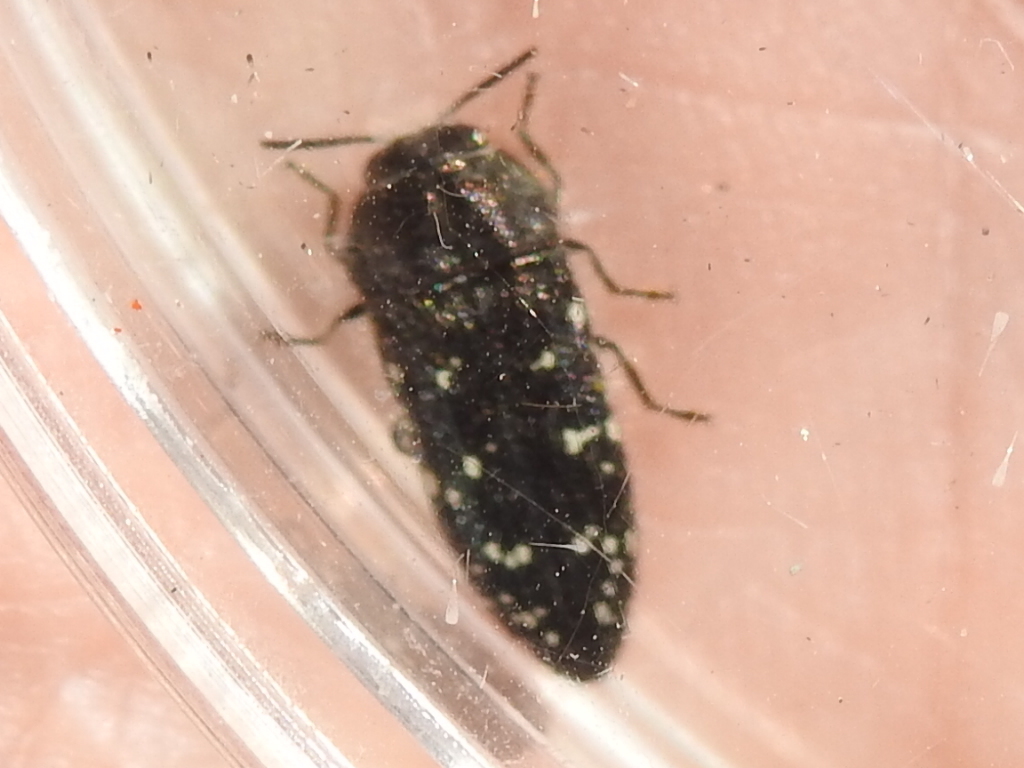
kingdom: Animalia
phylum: Arthropoda
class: Insecta
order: Coleoptera
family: Buprestidae
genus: Acmaeodera
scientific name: Acmaeodera ornatoides
